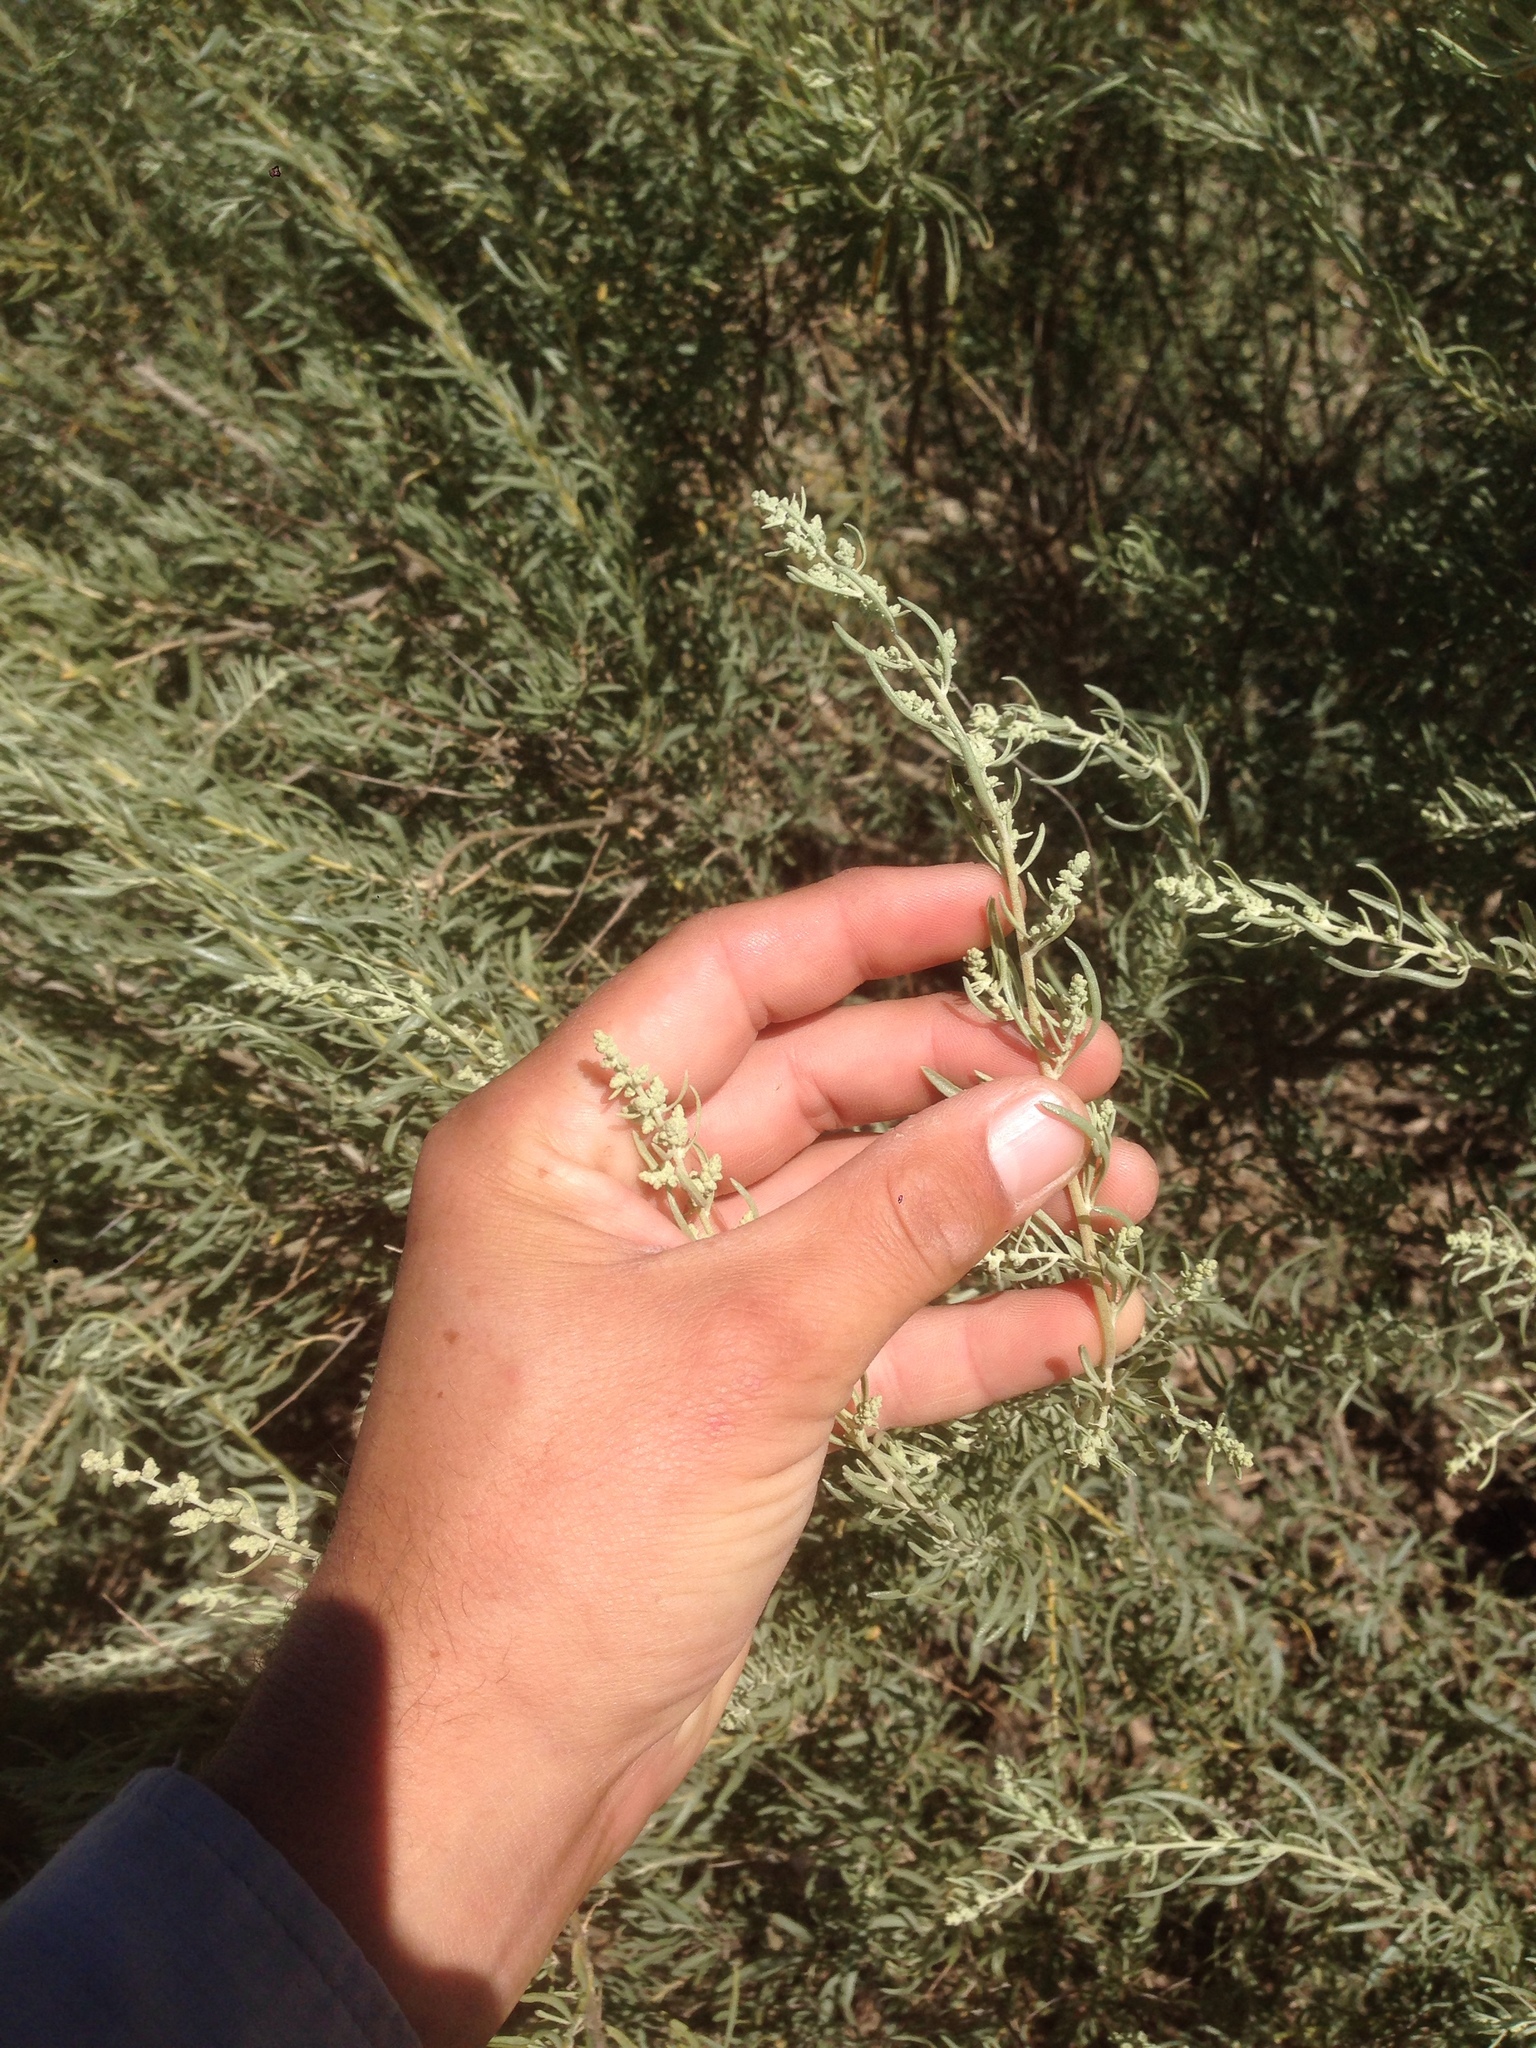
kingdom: Plantae
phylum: Tracheophyta
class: Magnoliopsida
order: Caryophyllales
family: Amaranthaceae
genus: Atriplex
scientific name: Atriplex canescens
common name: Four-wing saltbush
